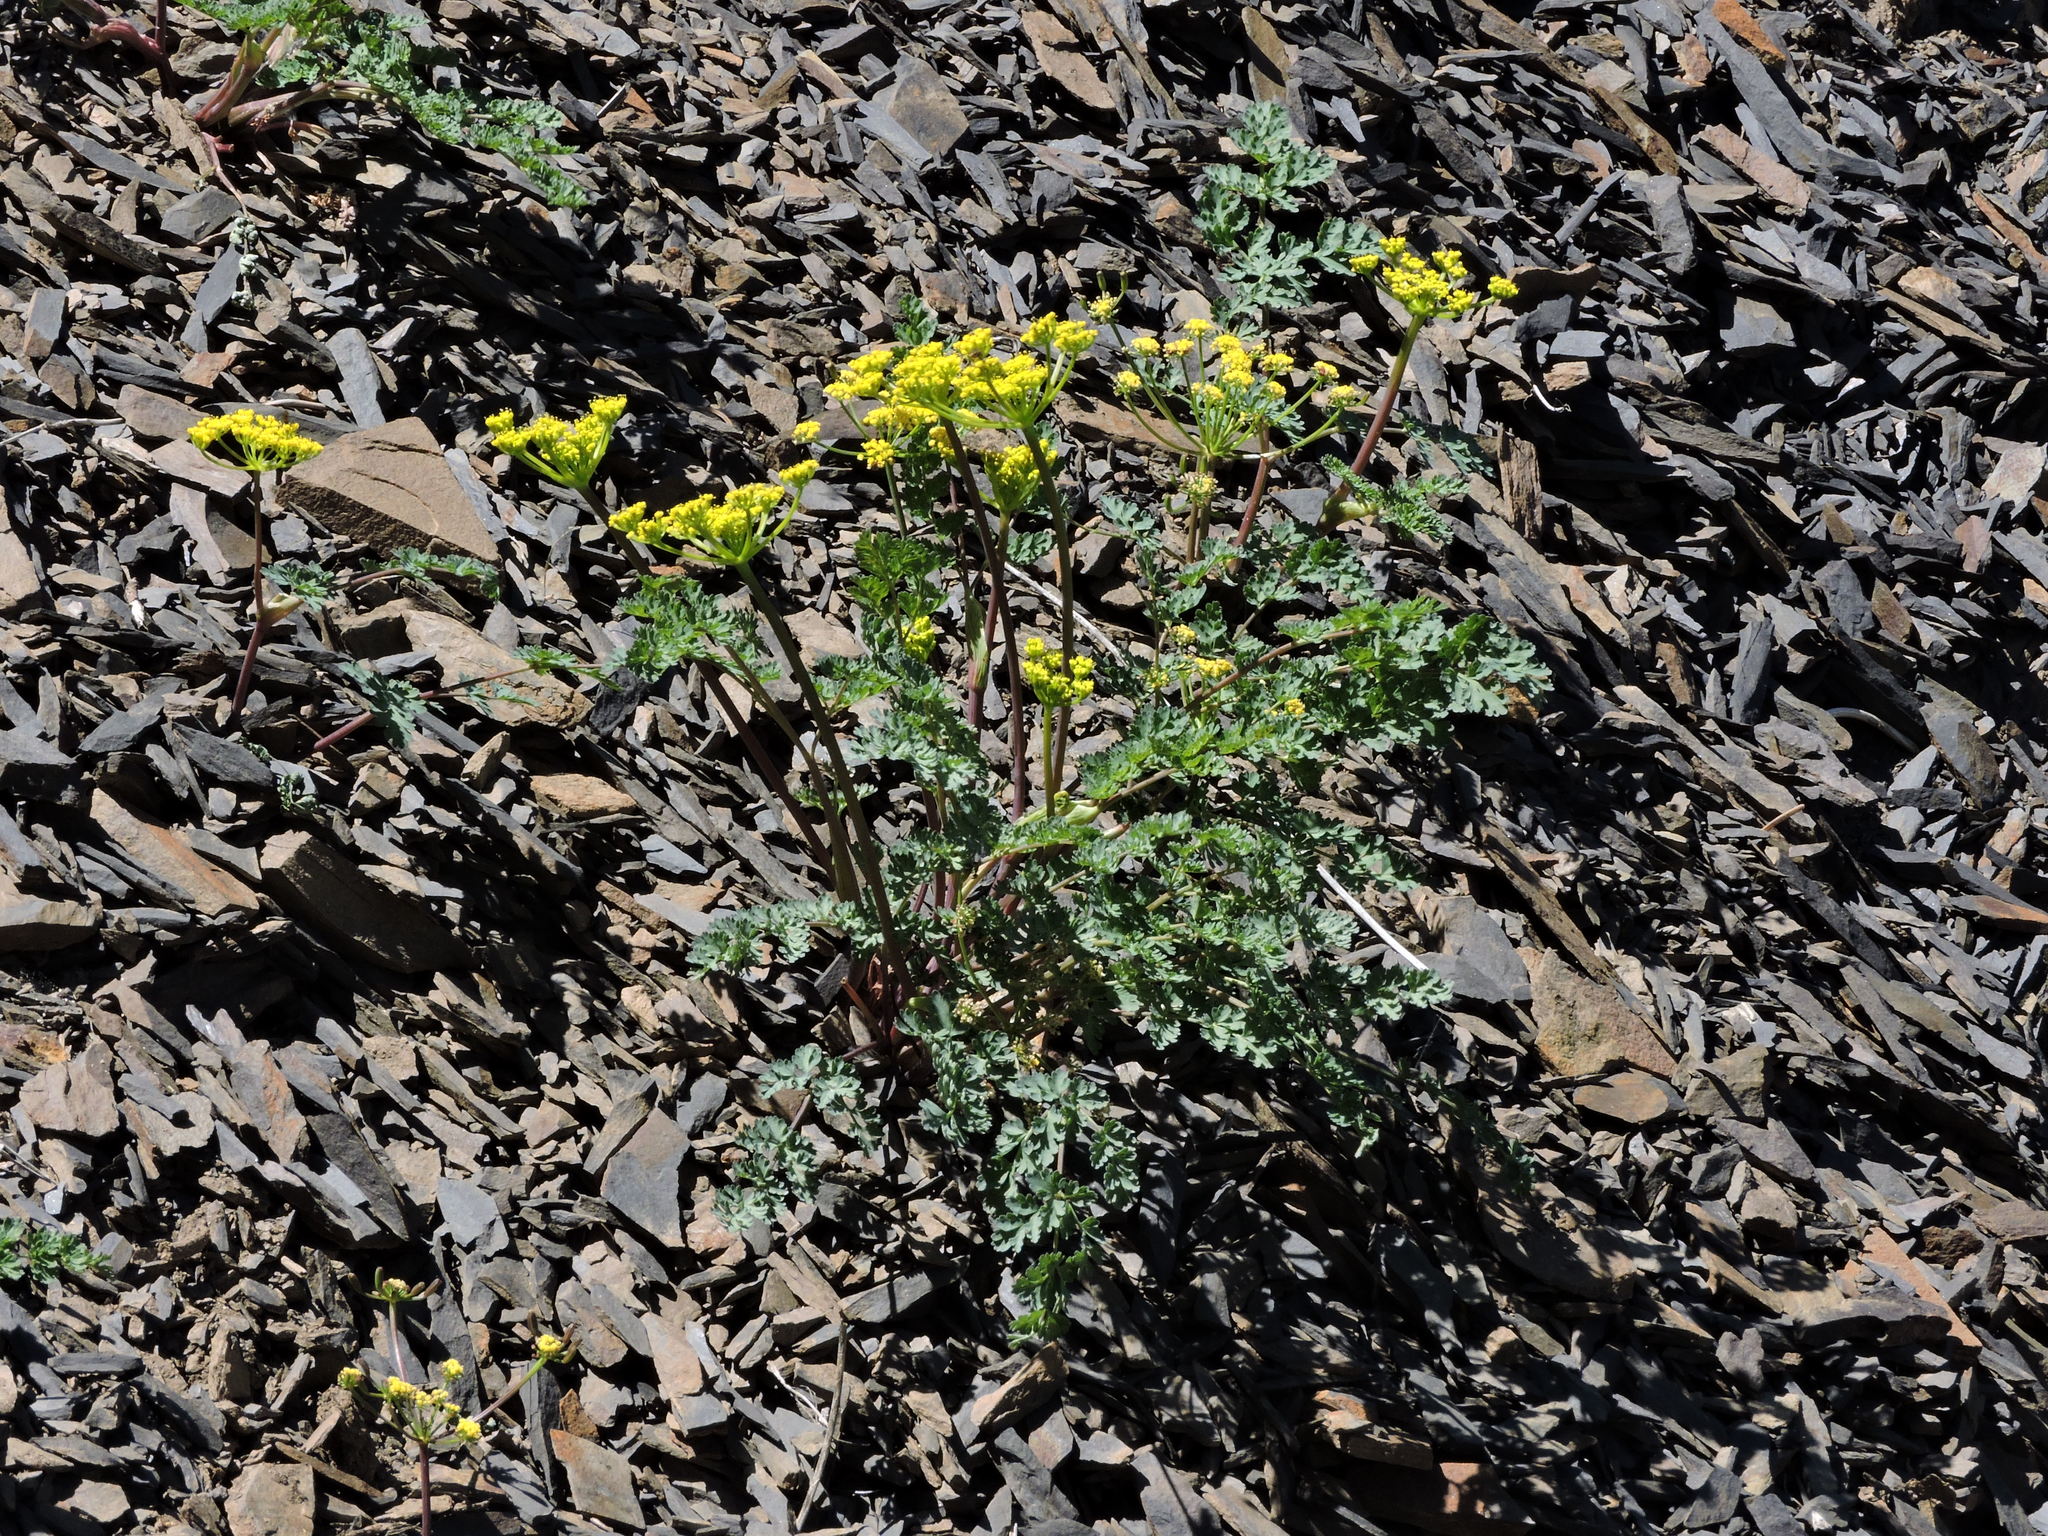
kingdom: Plantae
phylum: Tracheophyta
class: Magnoliopsida
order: Apiales
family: Apiaceae
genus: Lomatium
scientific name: Lomatium martindalei
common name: Cascade desert-parsley
